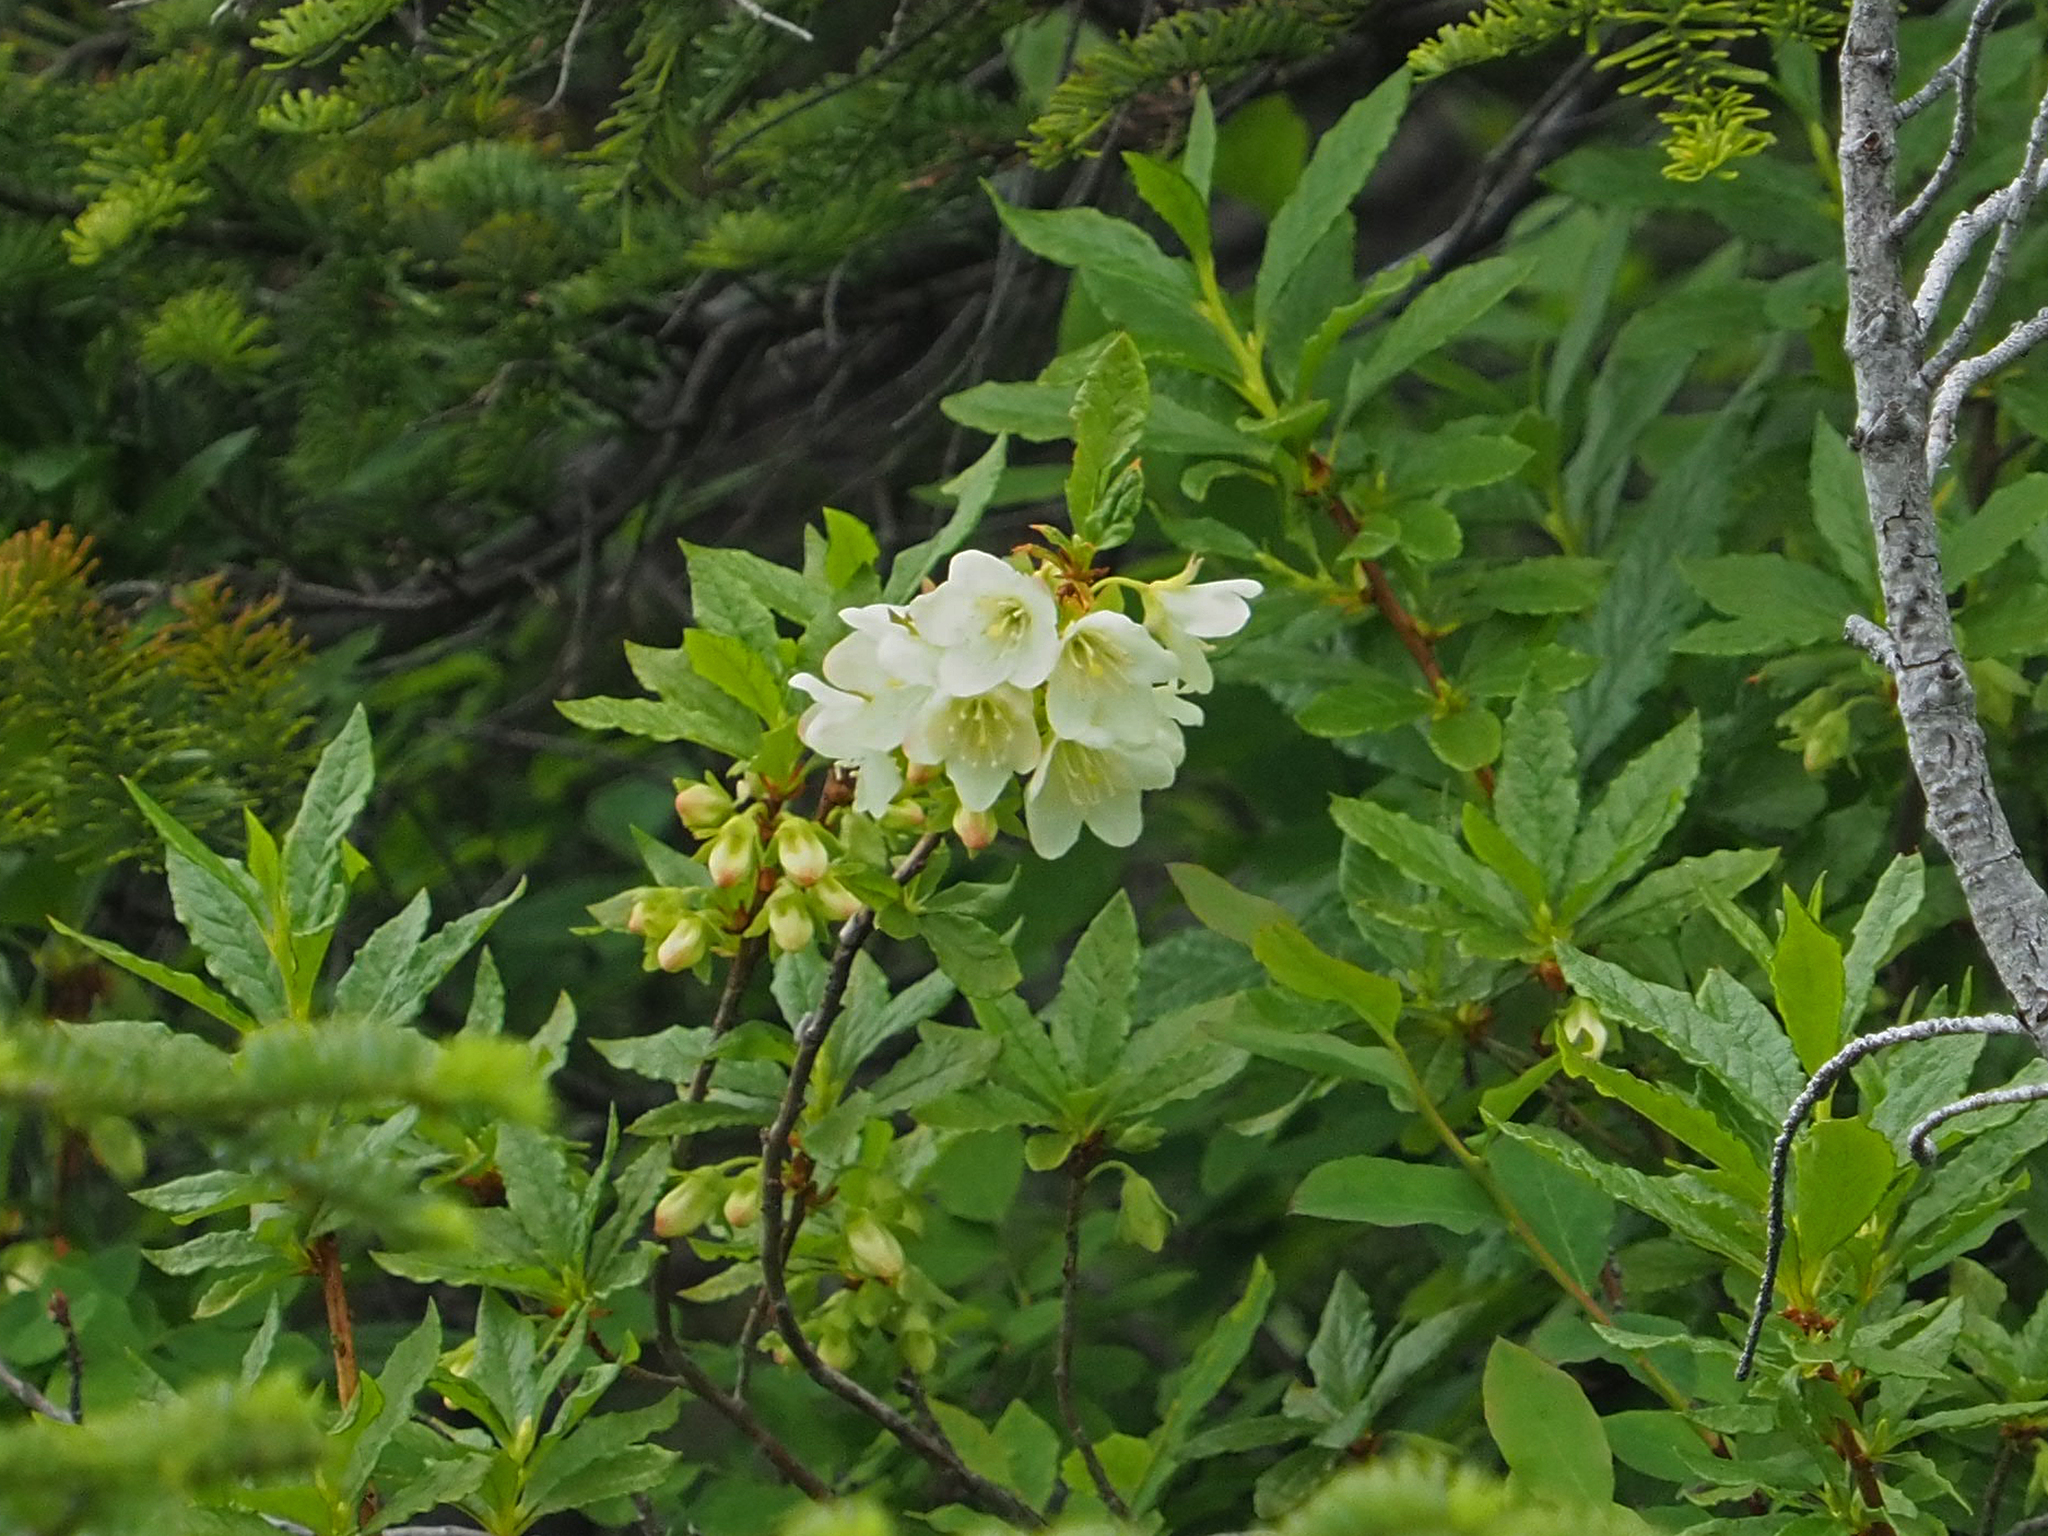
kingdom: Plantae
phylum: Tracheophyta
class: Magnoliopsida
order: Ericales
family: Ericaceae
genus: Rhododendron
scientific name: Rhododendron albiflorum
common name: White rhododendron
